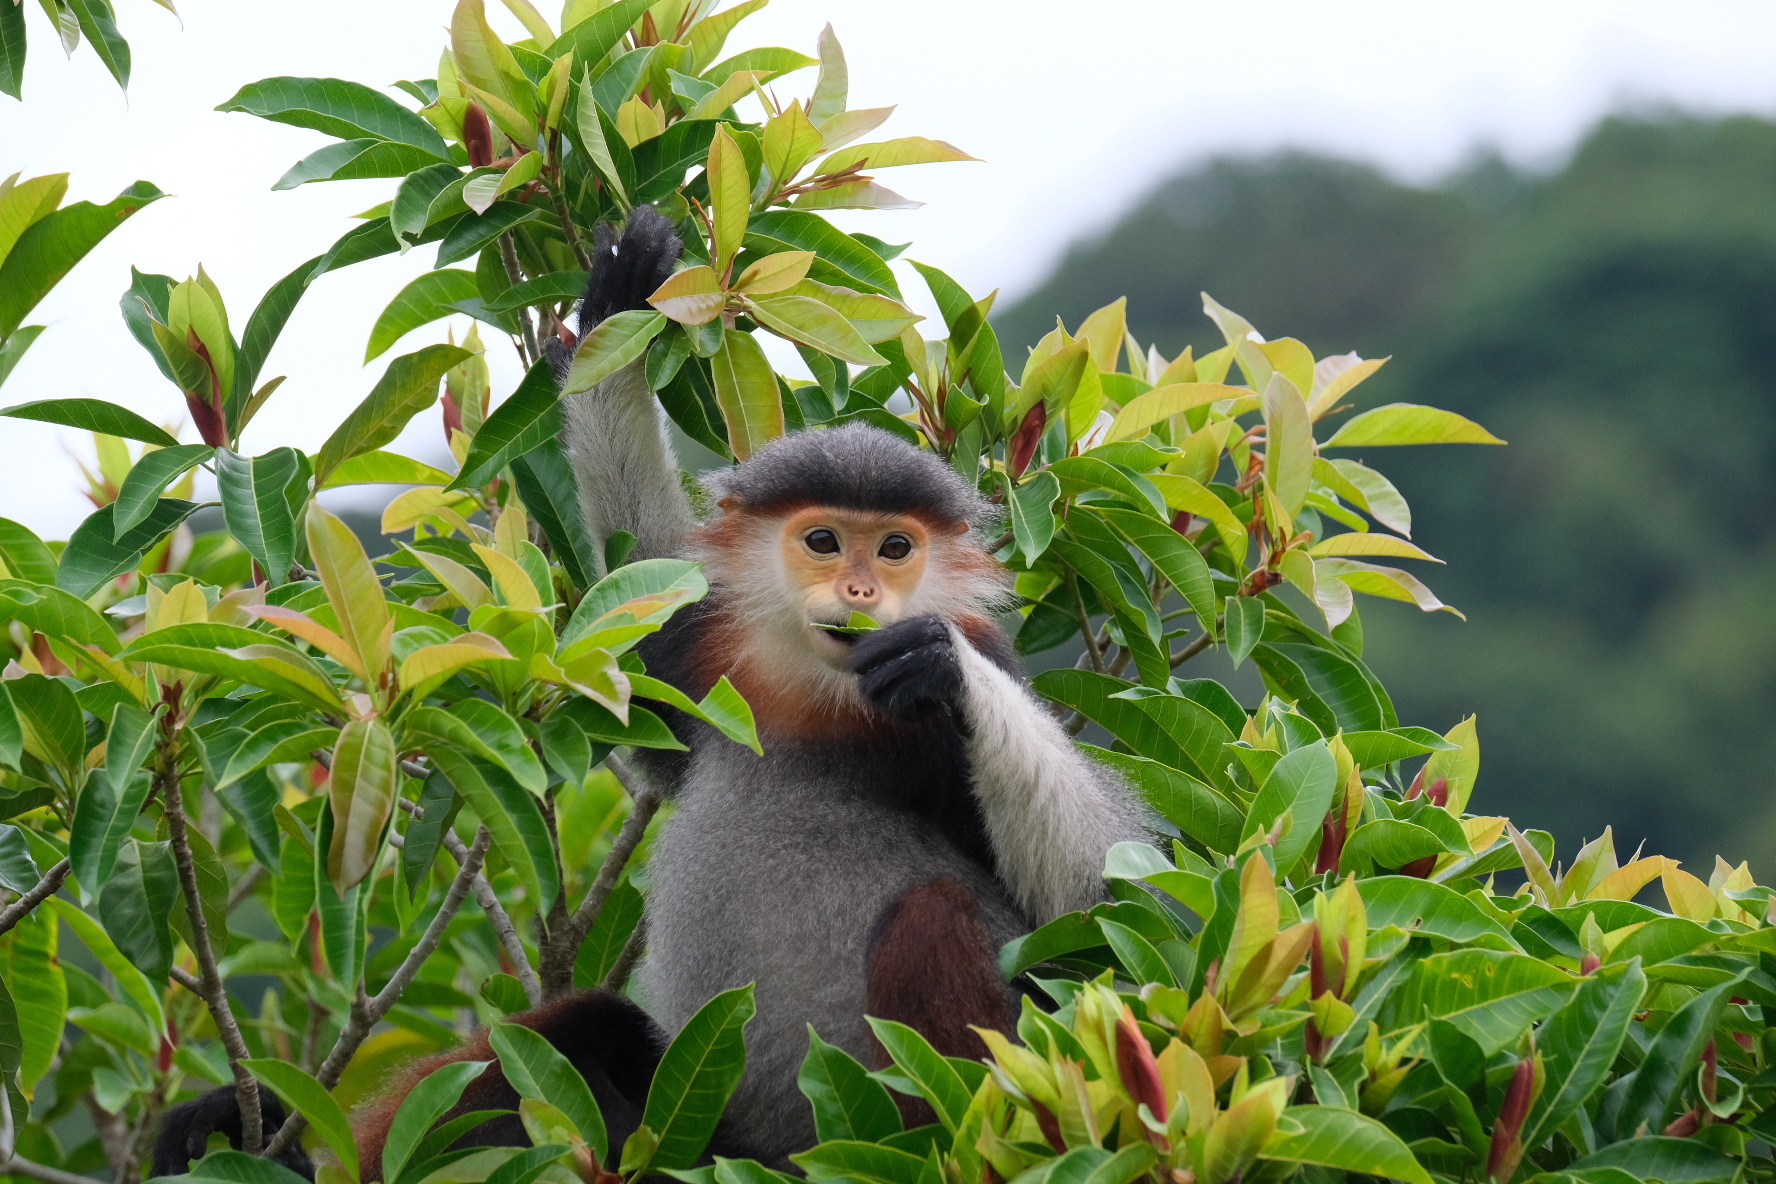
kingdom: Animalia
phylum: Chordata
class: Mammalia
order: Primates
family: Cercopithecidae
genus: Pygathrix
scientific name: Pygathrix nemaeus
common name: Red-shanked douc
